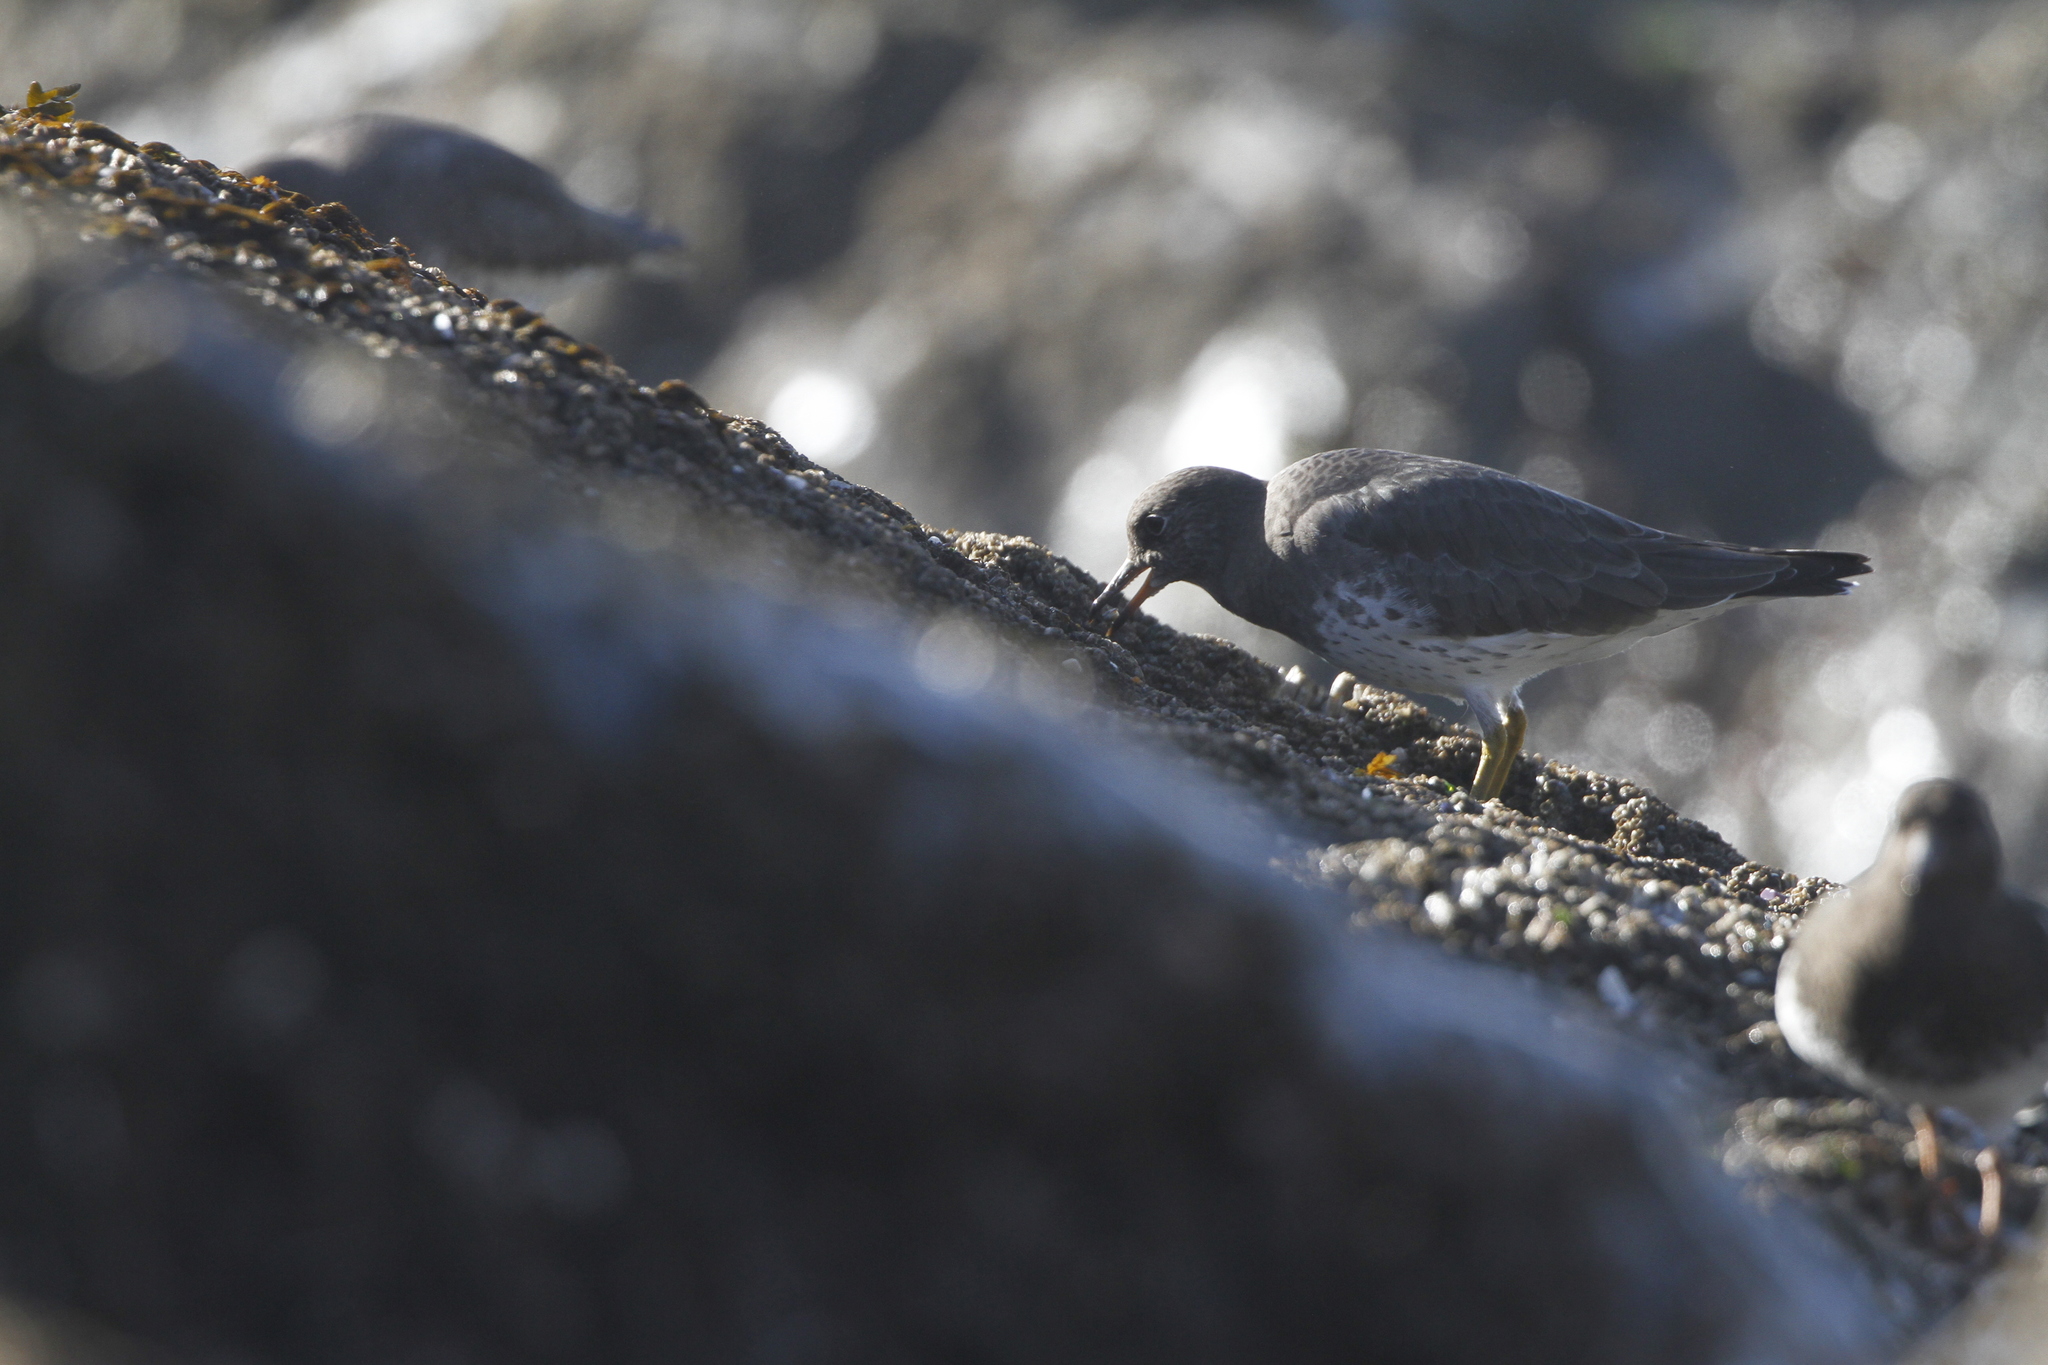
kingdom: Animalia
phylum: Chordata
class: Aves
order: Charadriiformes
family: Scolopacidae
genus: Calidris
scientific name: Calidris virgata
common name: Surfbird
